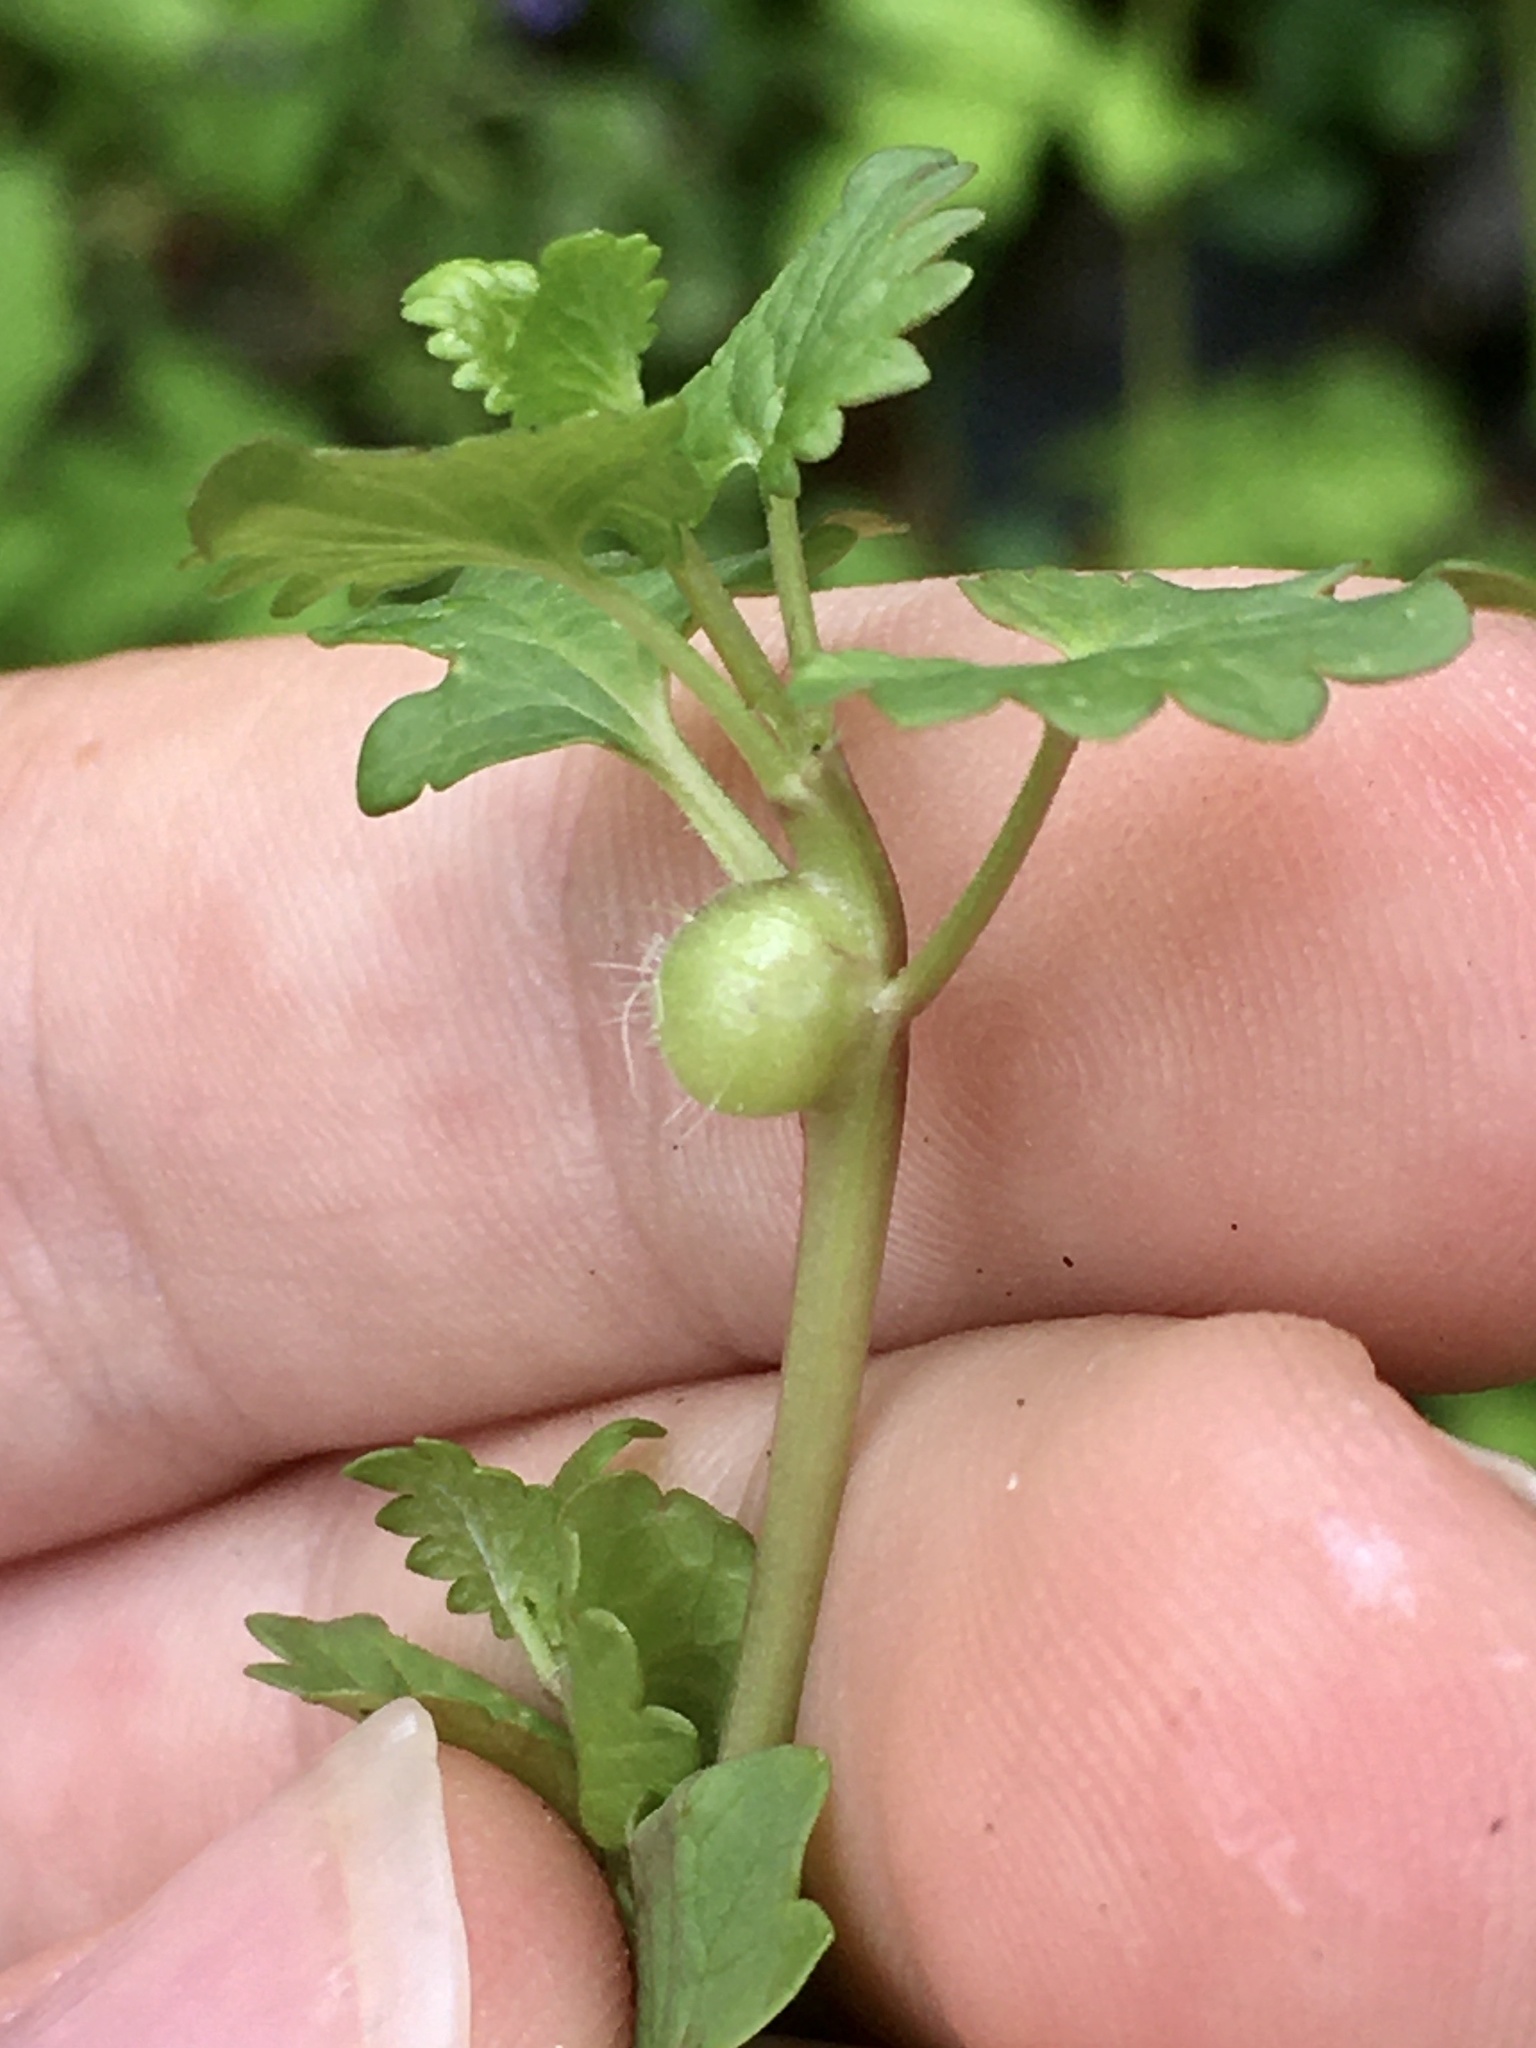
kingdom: Animalia
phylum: Arthropoda
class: Insecta
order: Hymenoptera
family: Cynipidae
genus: Liposthenes
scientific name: Liposthenes glechomae
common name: Gall wasp
